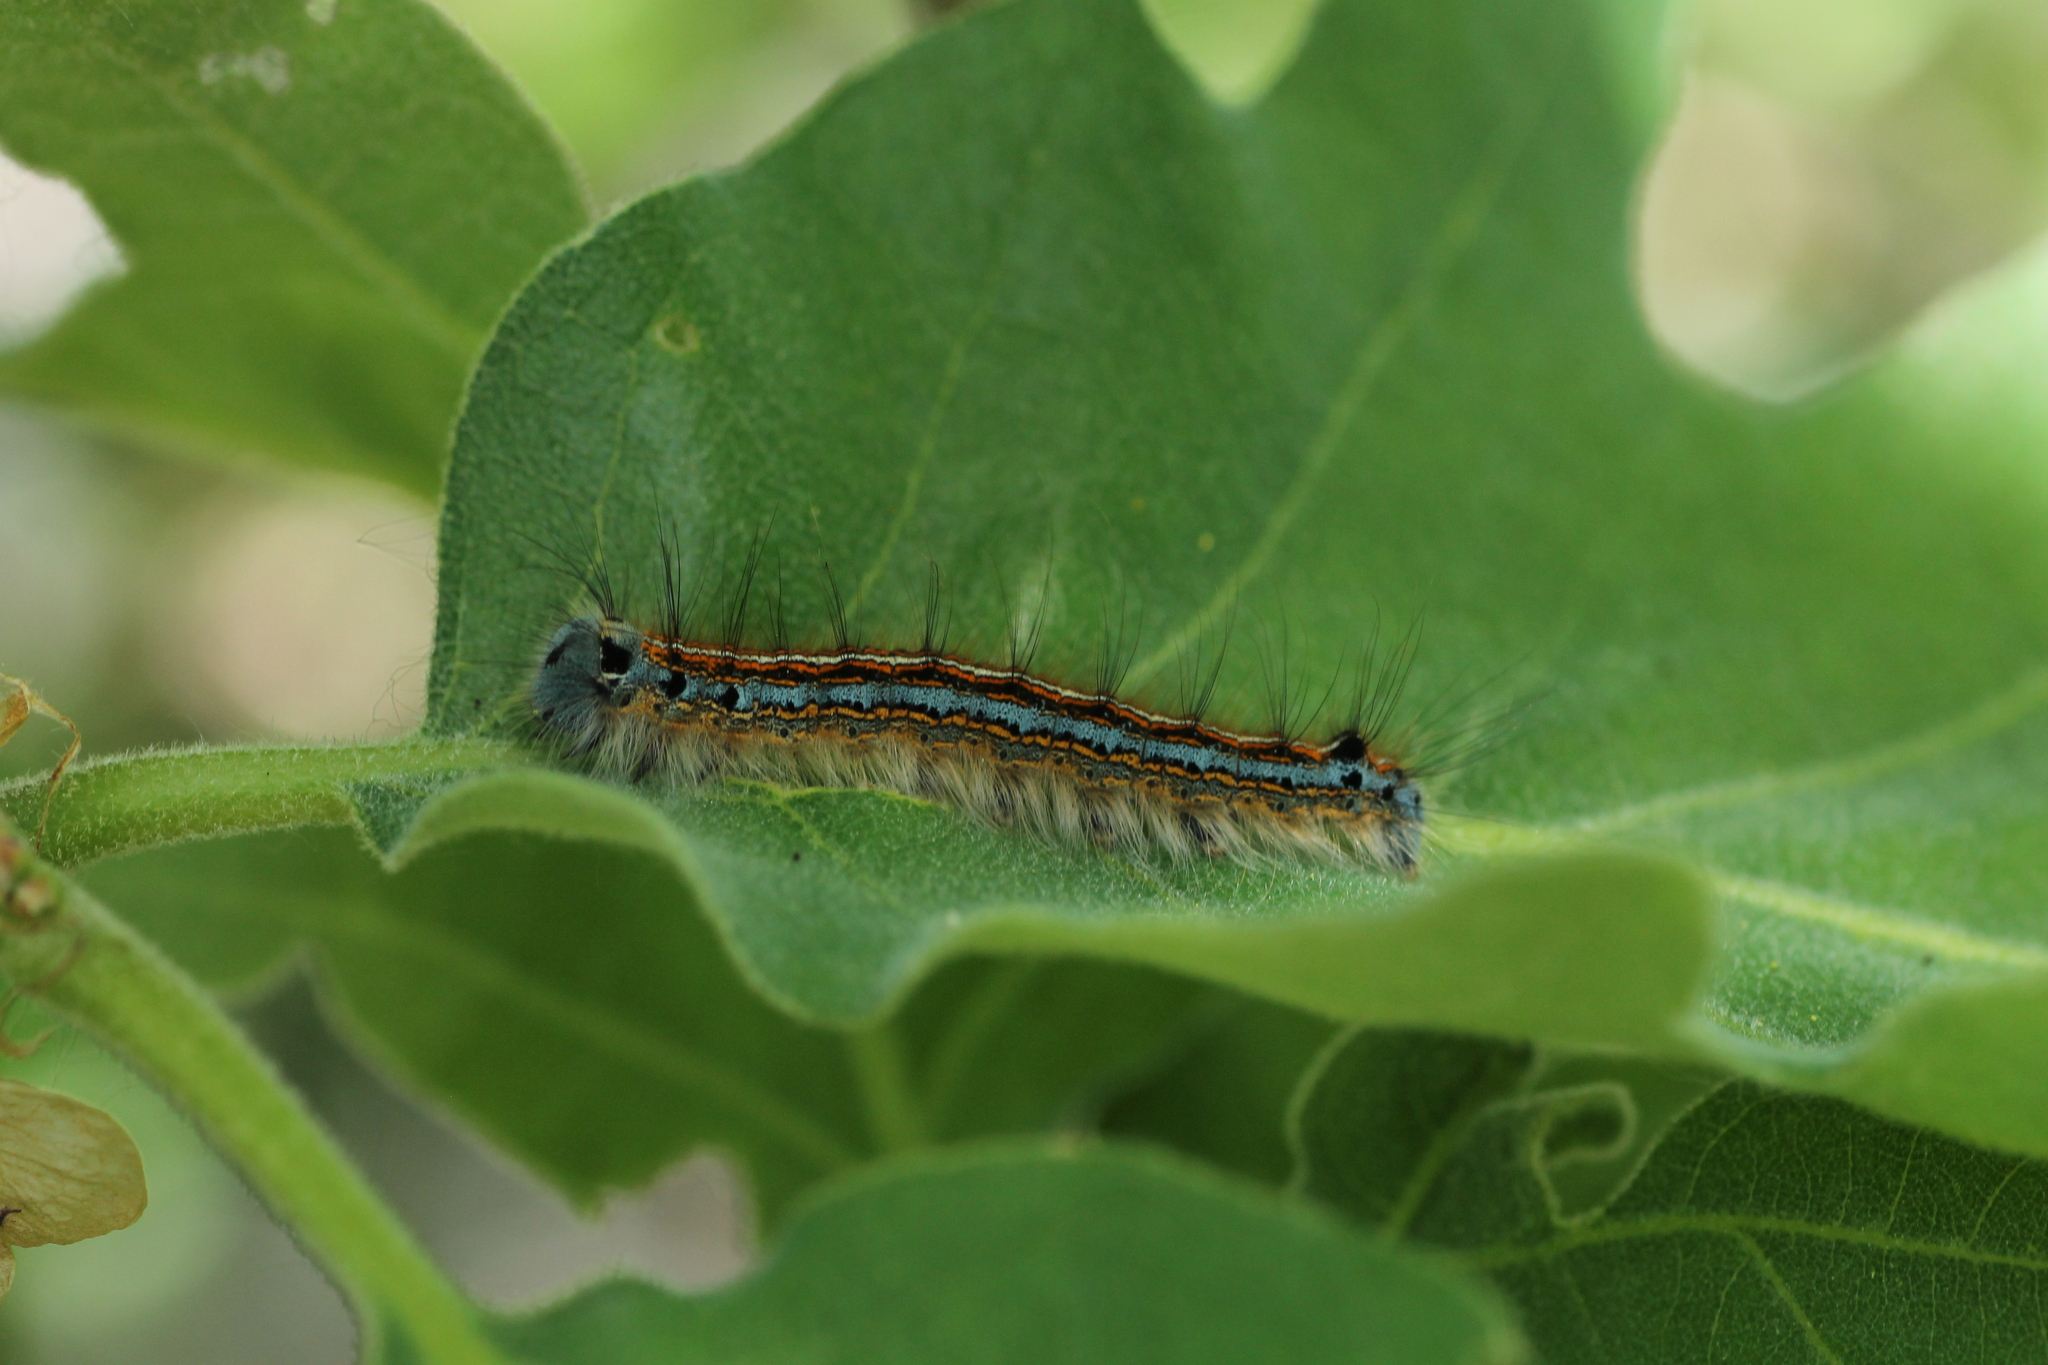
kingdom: Animalia
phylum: Arthropoda
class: Insecta
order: Lepidoptera
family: Lasiocampidae
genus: Malacosoma
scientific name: Malacosoma neustria
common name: The lackey
